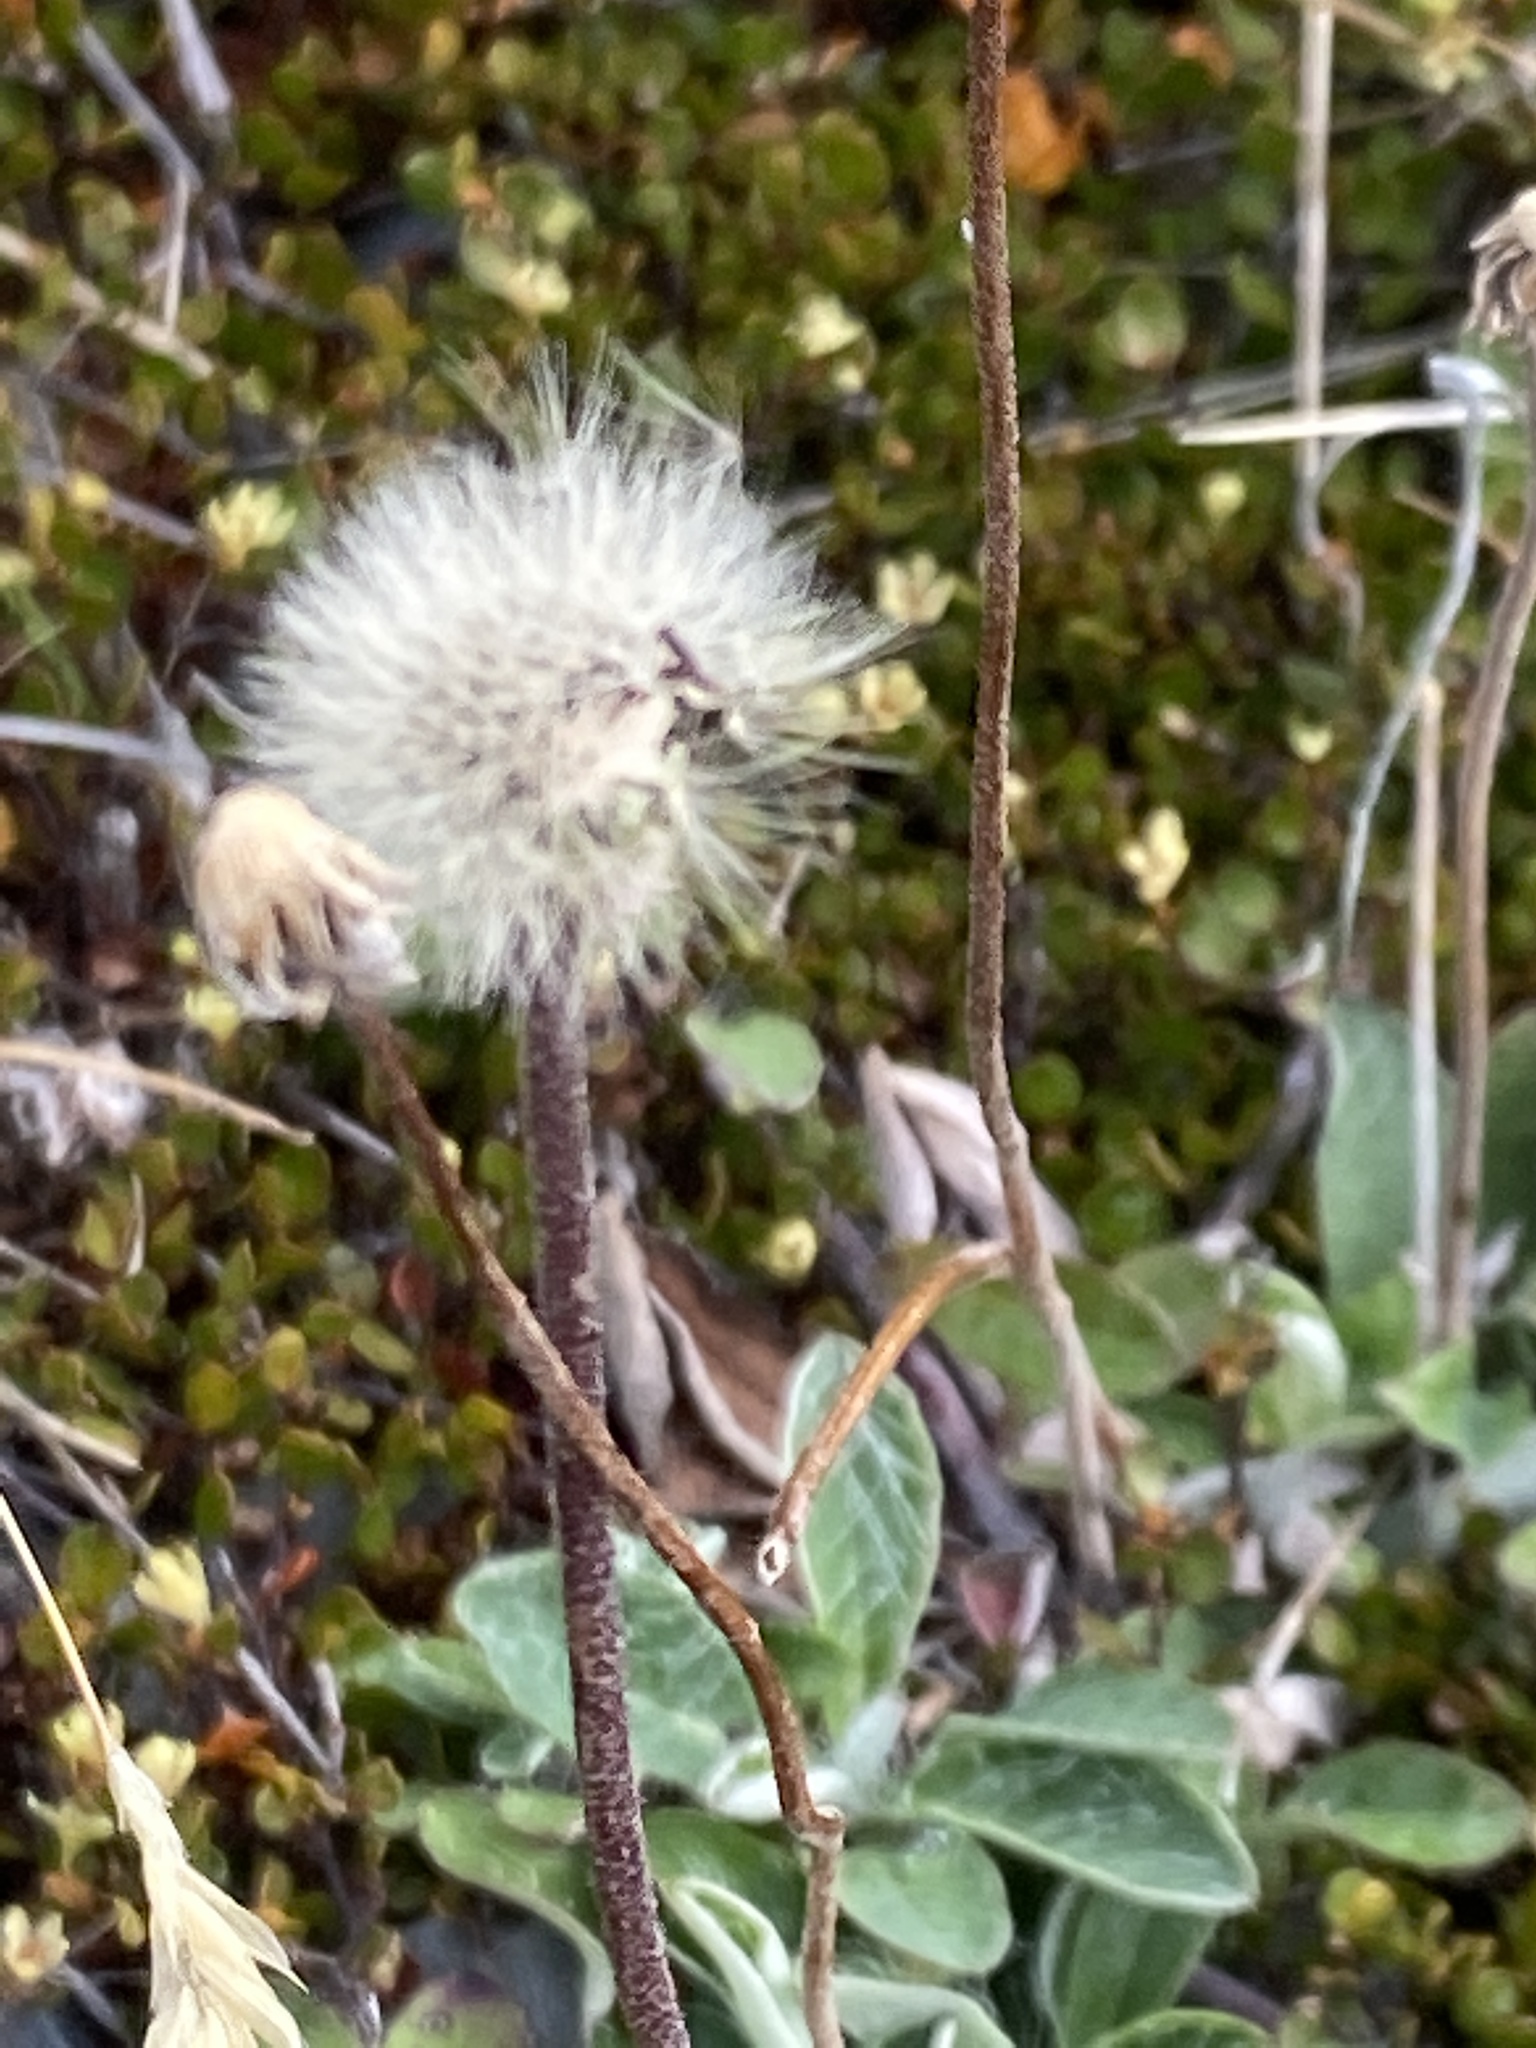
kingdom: Plantae
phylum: Tracheophyta
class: Magnoliopsida
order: Asterales
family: Asteraceae
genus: Pilosella
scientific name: Pilosella officinarum
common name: Mouse-ear hawkweed
